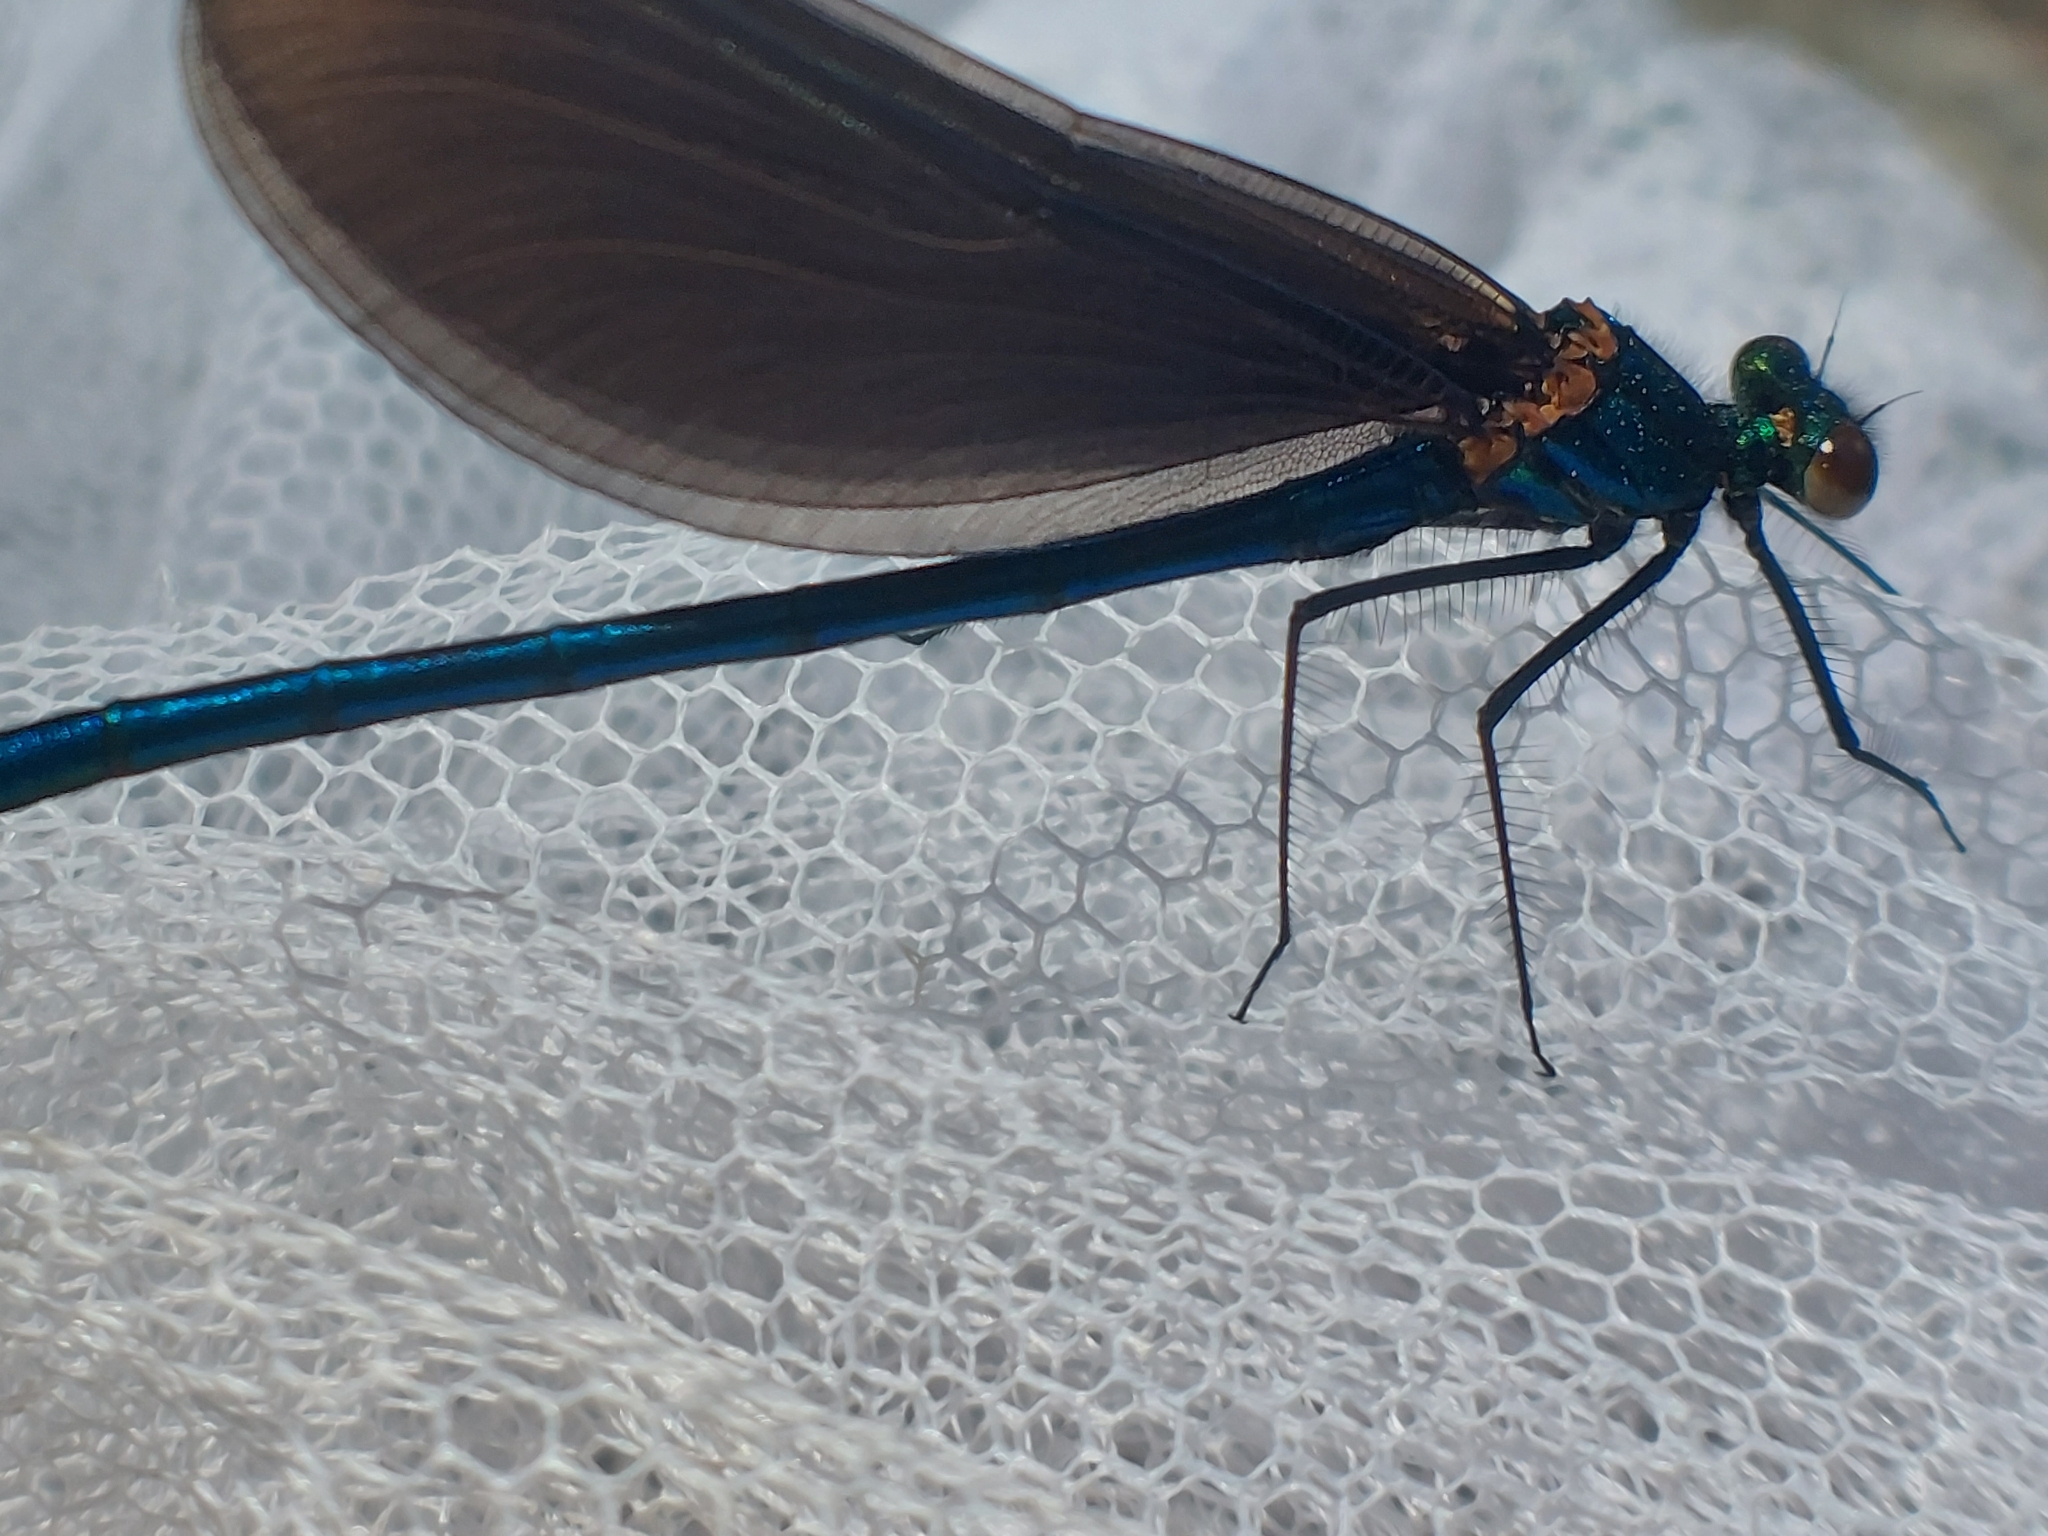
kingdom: Animalia
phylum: Arthropoda
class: Insecta
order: Odonata
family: Calopterygidae
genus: Calopteryx
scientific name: Calopteryx virgo
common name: Beautiful demoiselle
